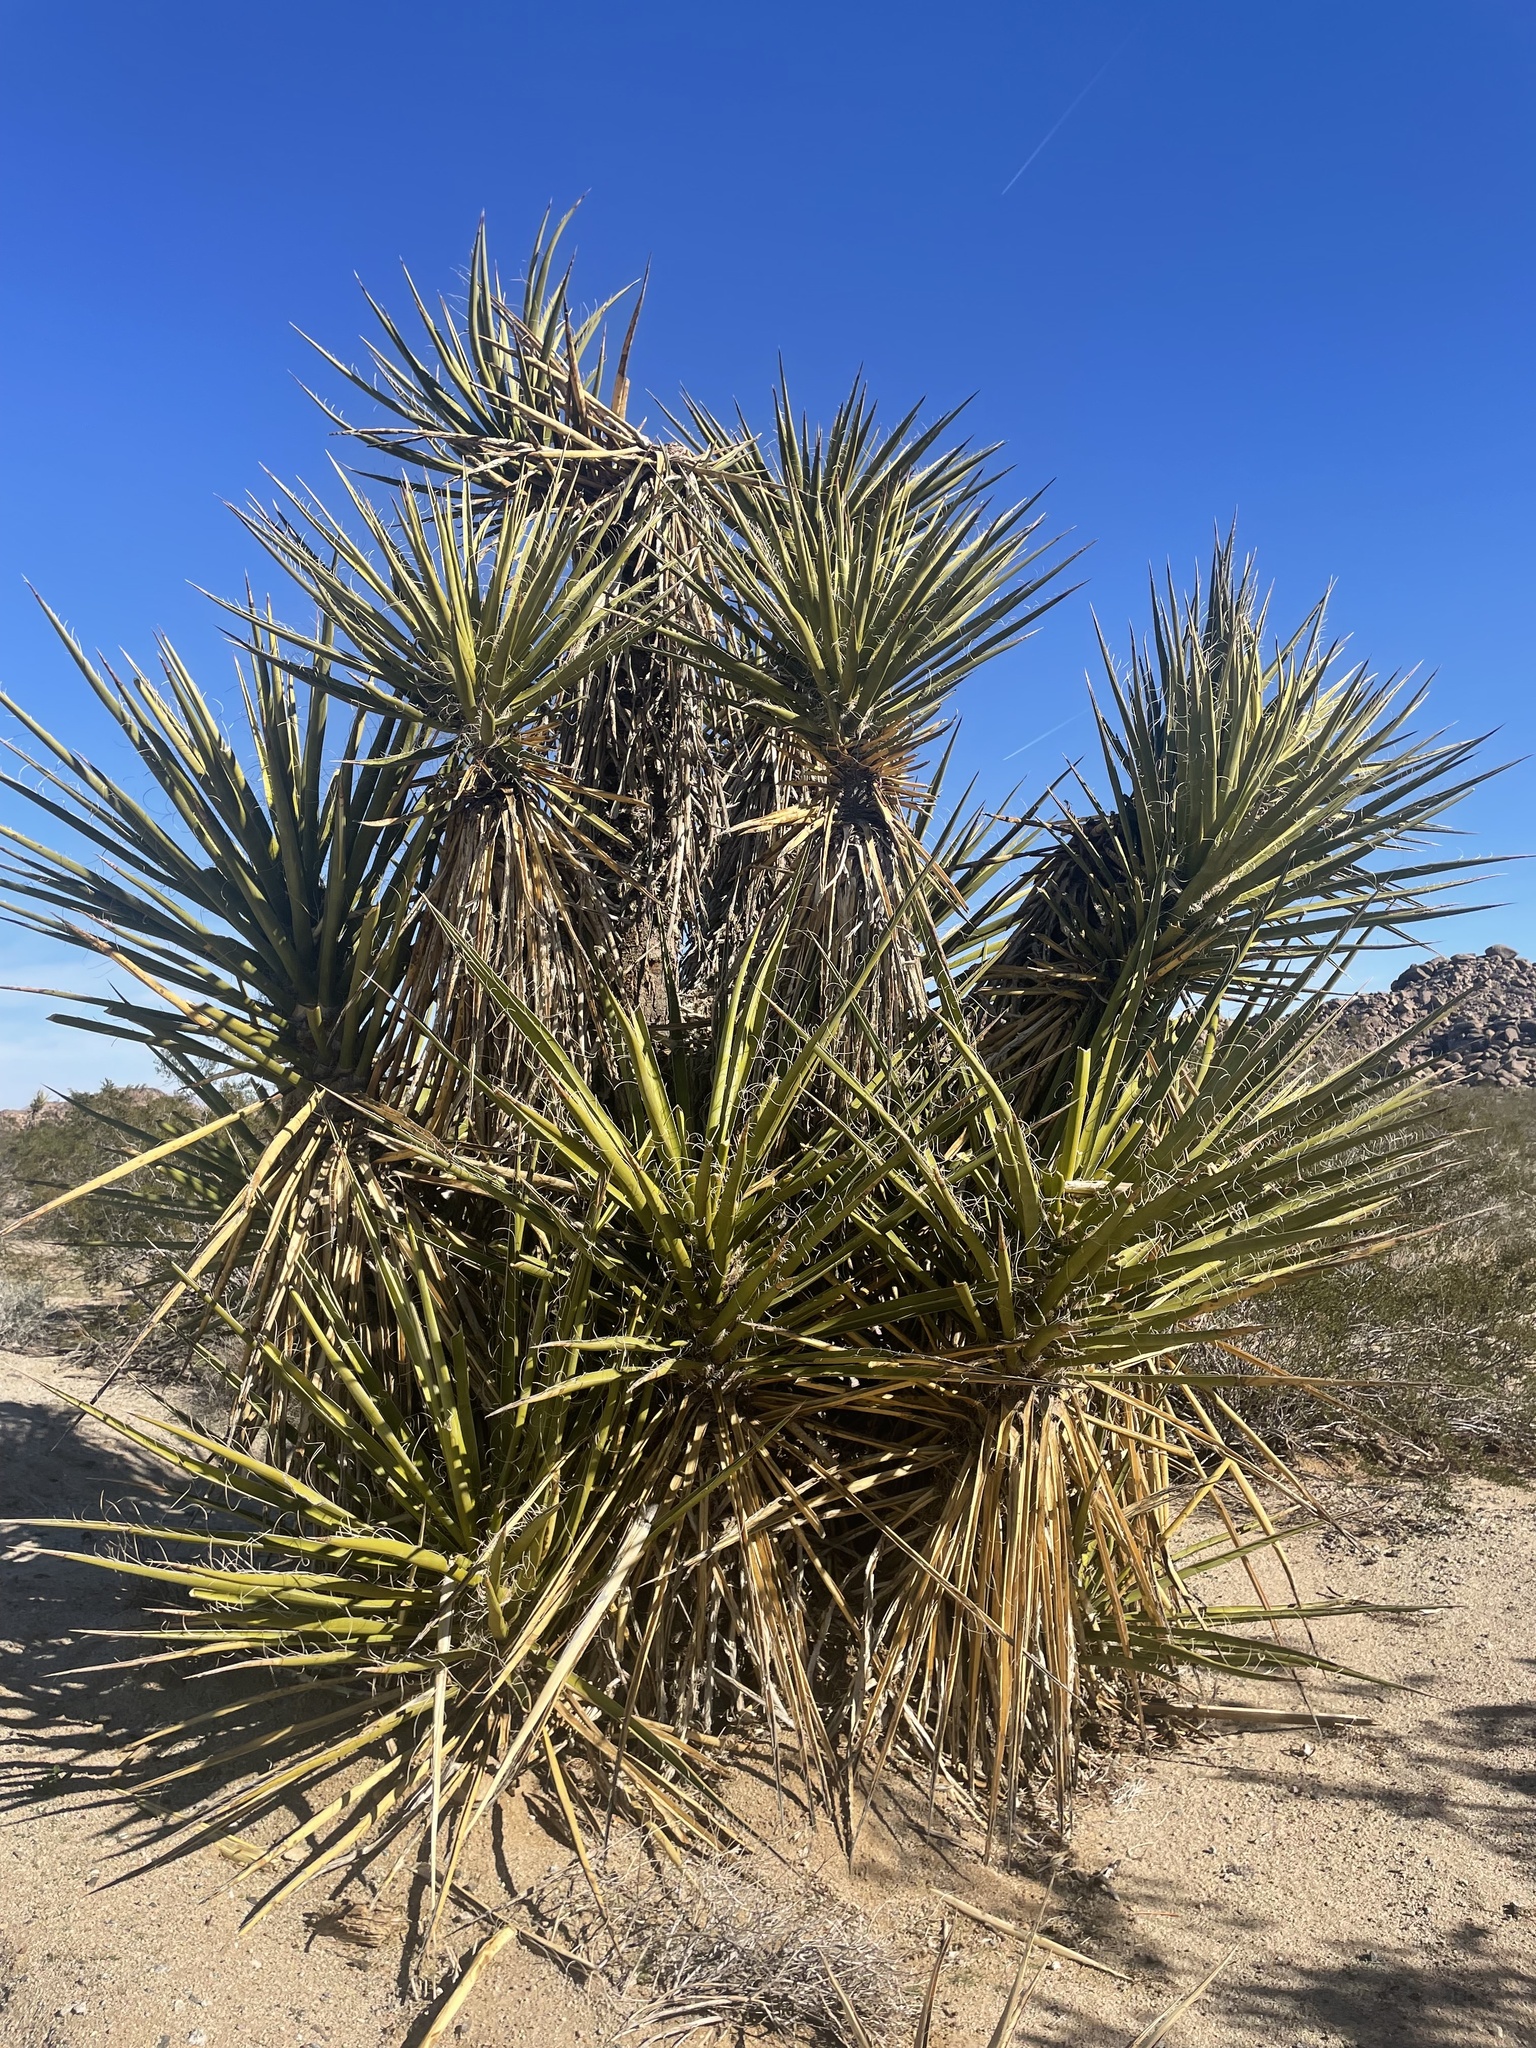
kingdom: Plantae
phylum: Tracheophyta
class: Liliopsida
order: Asparagales
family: Asparagaceae
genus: Yucca
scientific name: Yucca schidigera
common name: Mojave yucca
